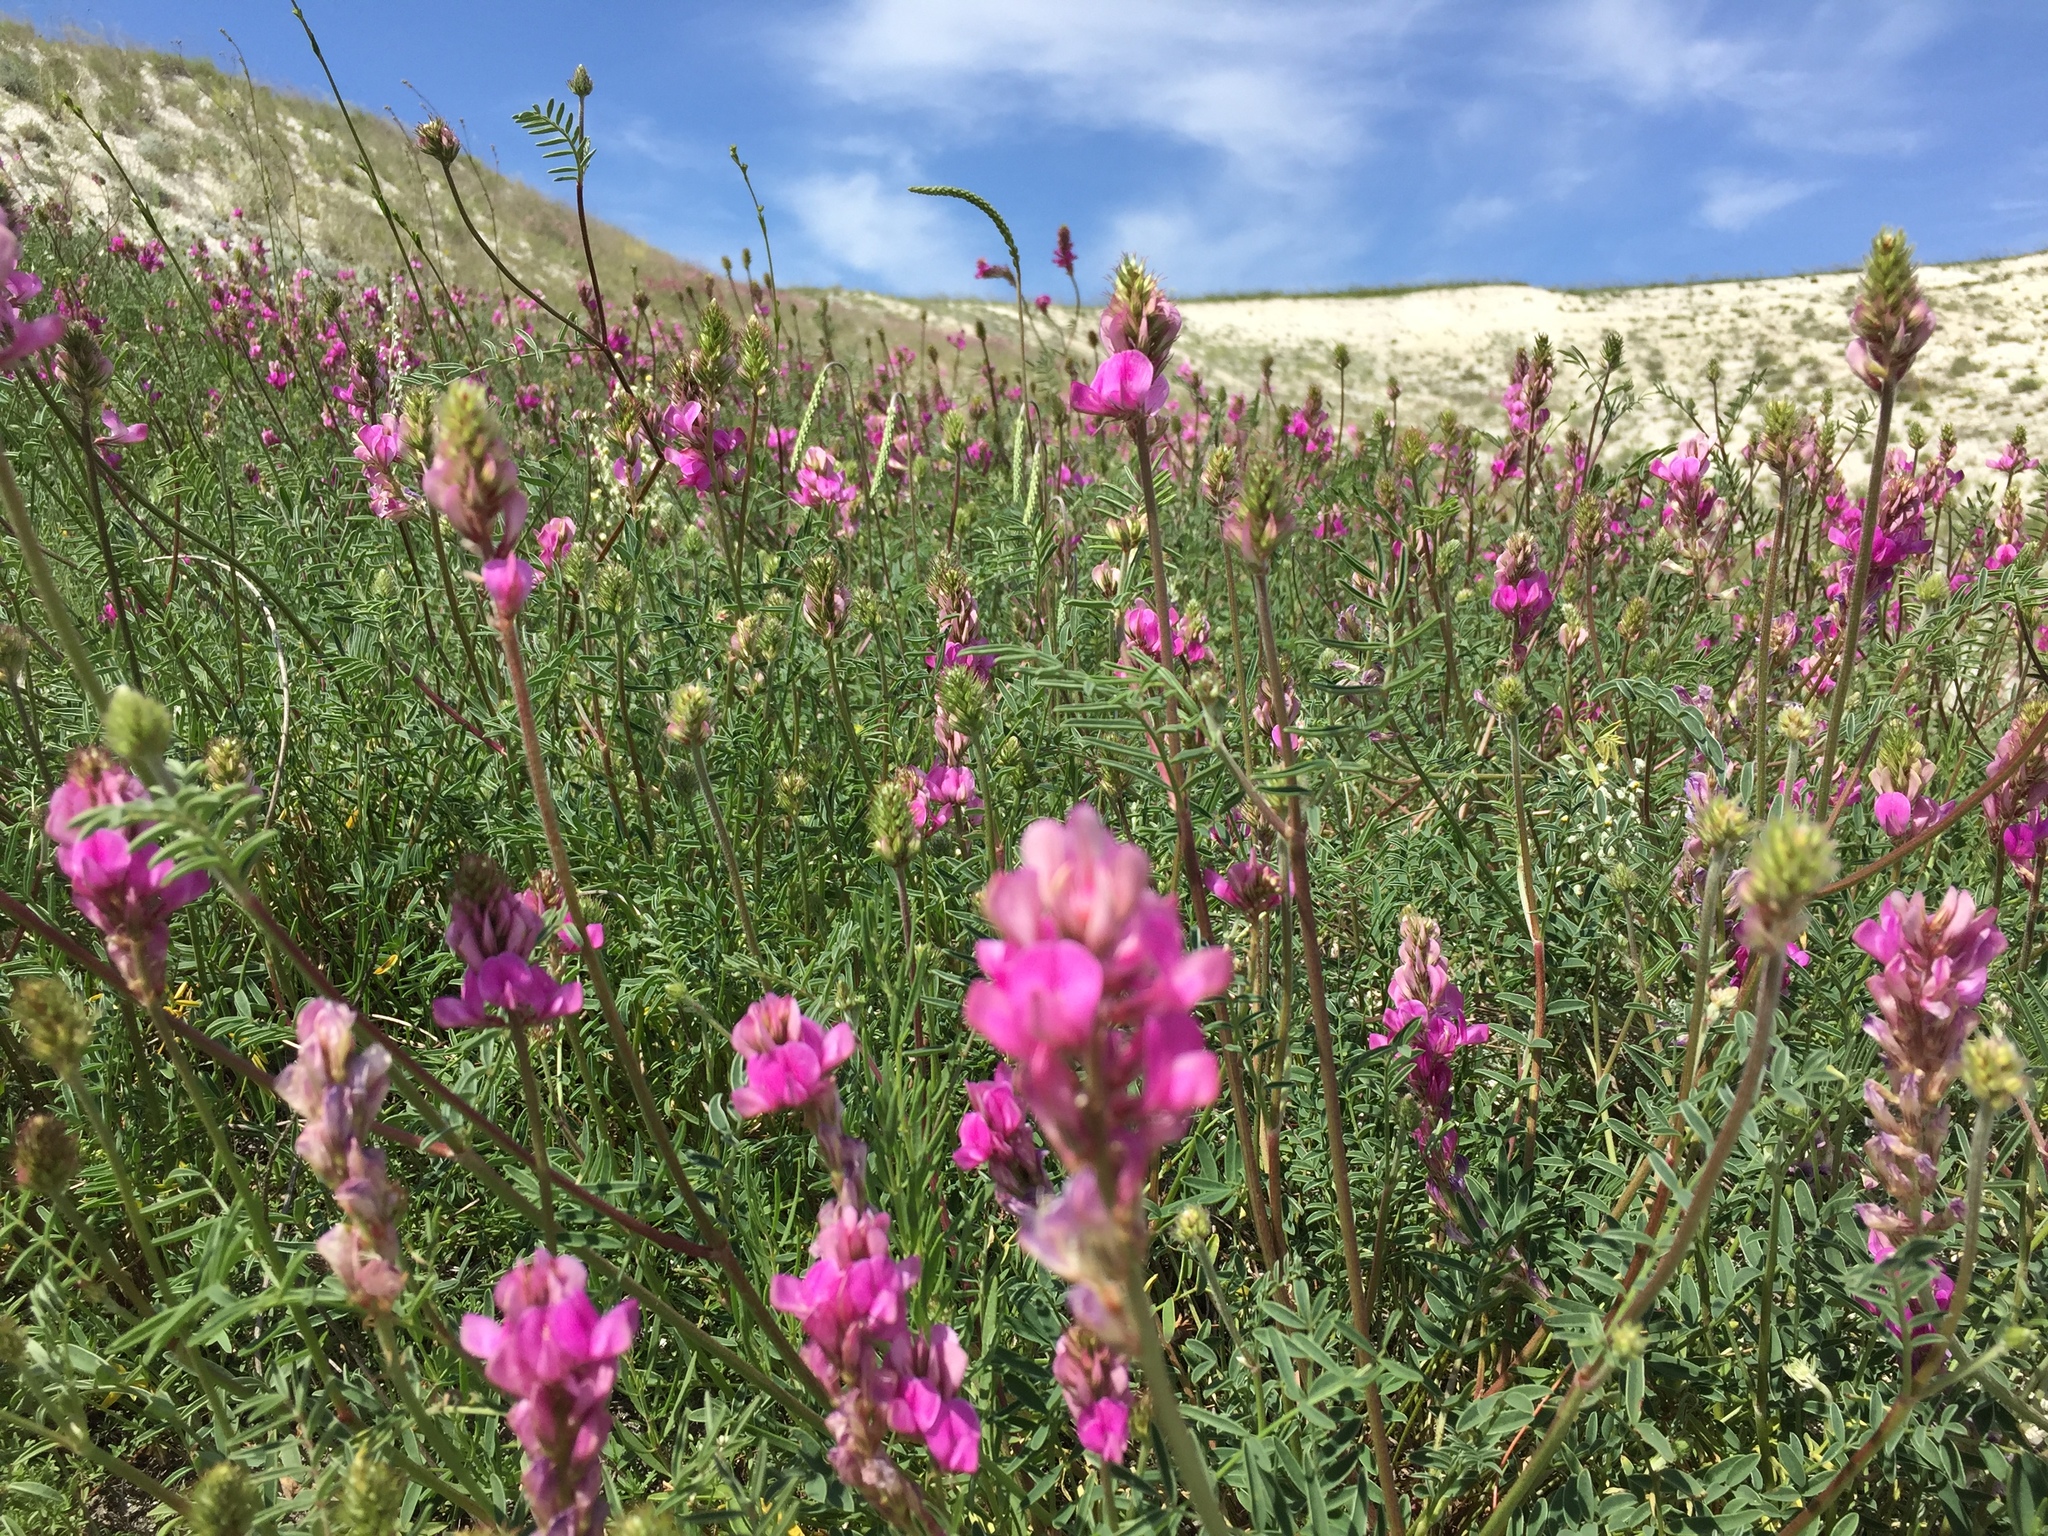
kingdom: Plantae
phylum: Tracheophyta
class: Magnoliopsida
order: Fabales
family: Fabaceae
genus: Hedysarum
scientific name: Hedysarum ucrainicum
